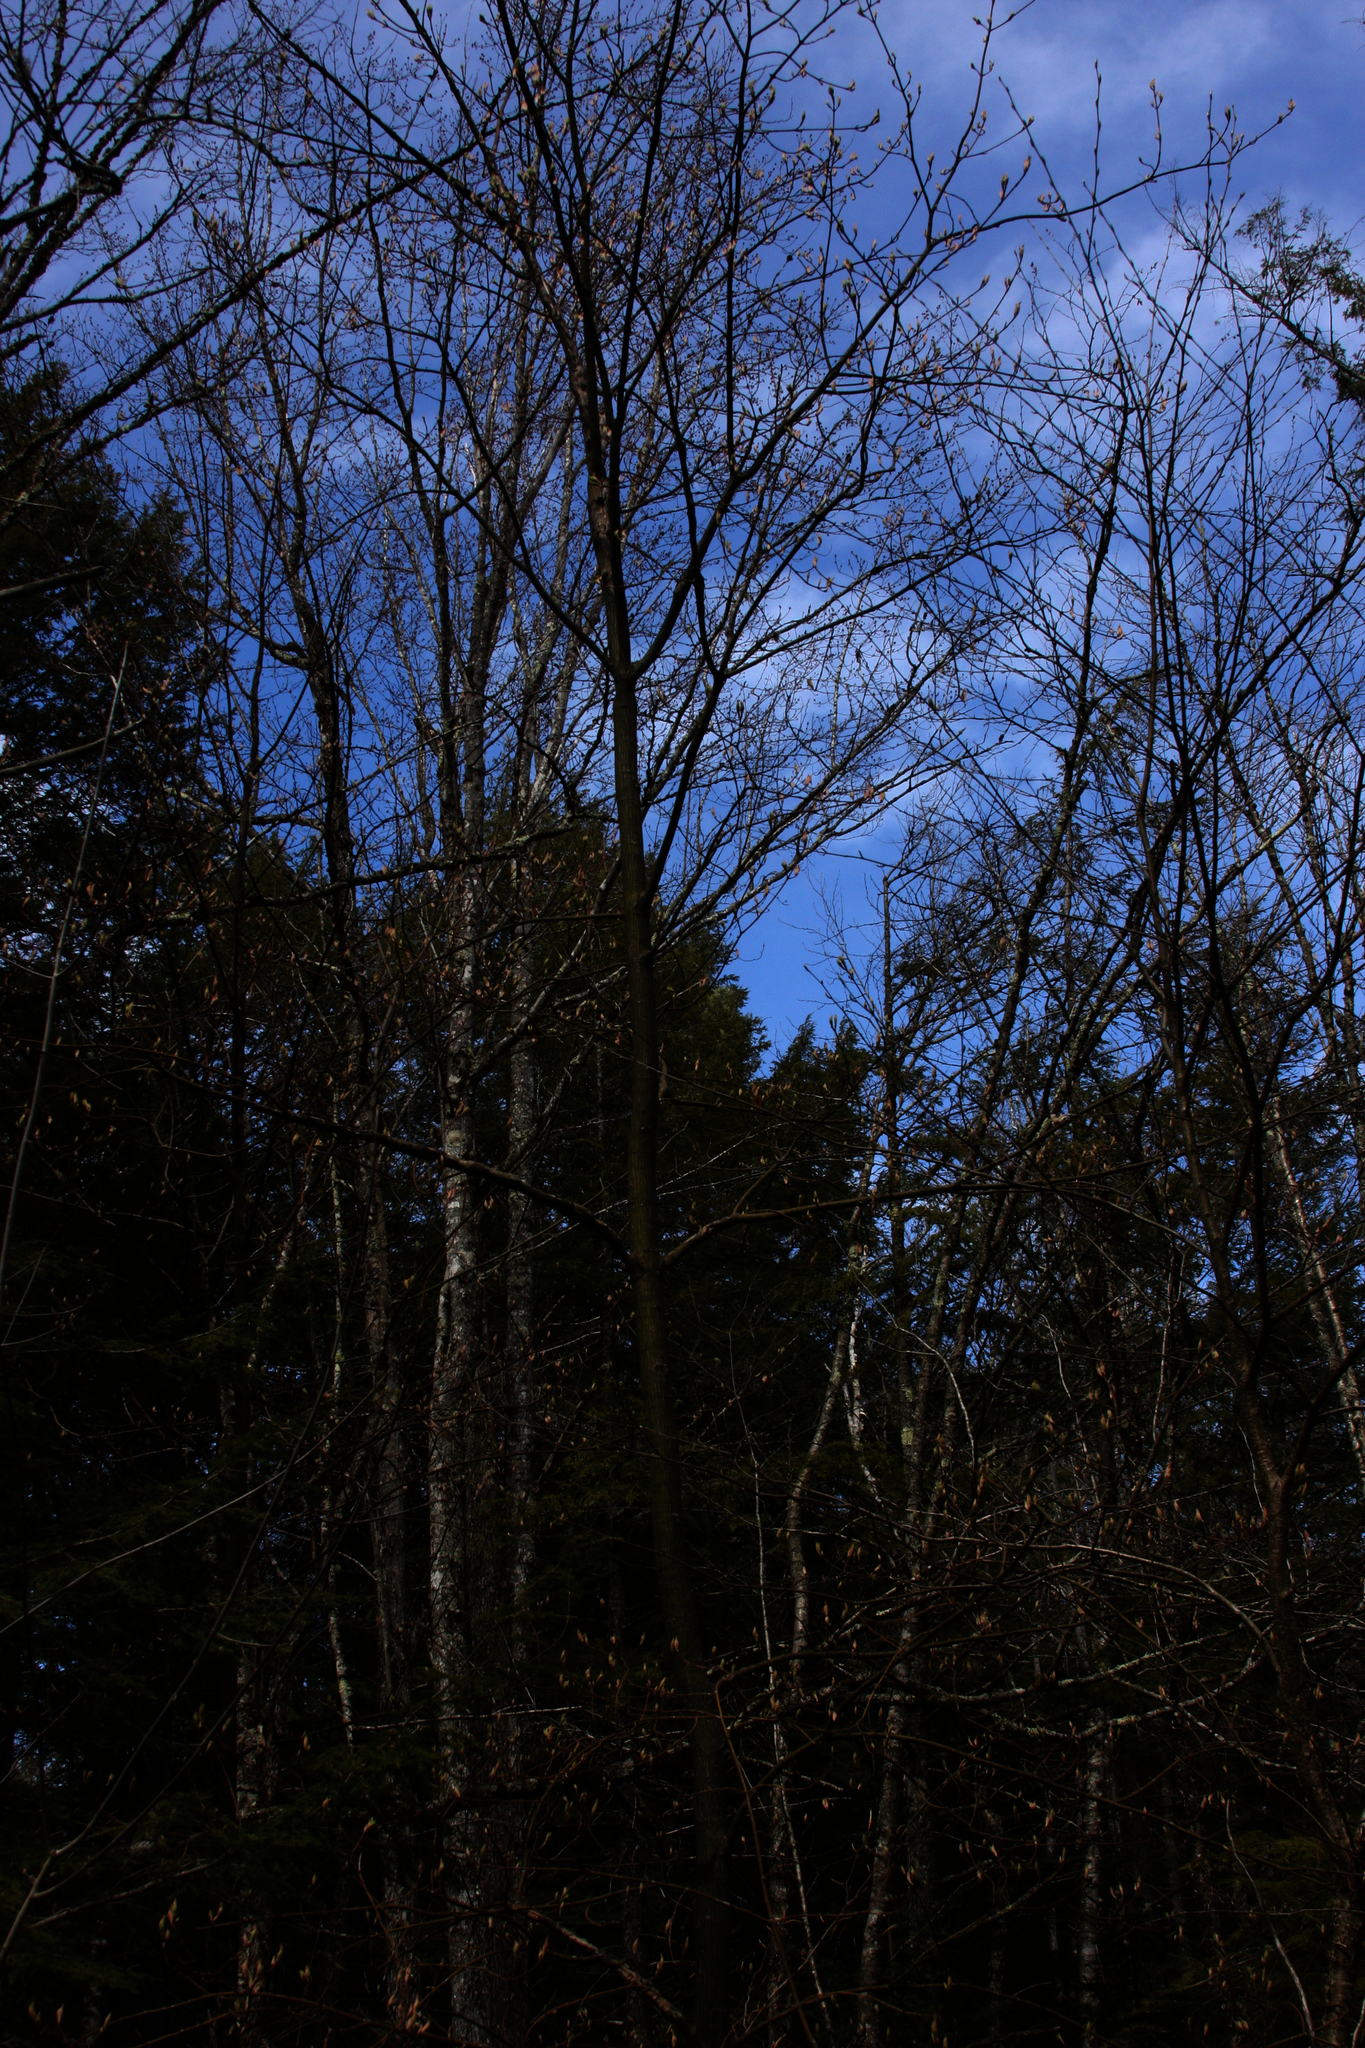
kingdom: Plantae
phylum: Tracheophyta
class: Magnoliopsida
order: Sapindales
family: Sapindaceae
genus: Acer
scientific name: Acer pensylvanicum
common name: Moosewood
